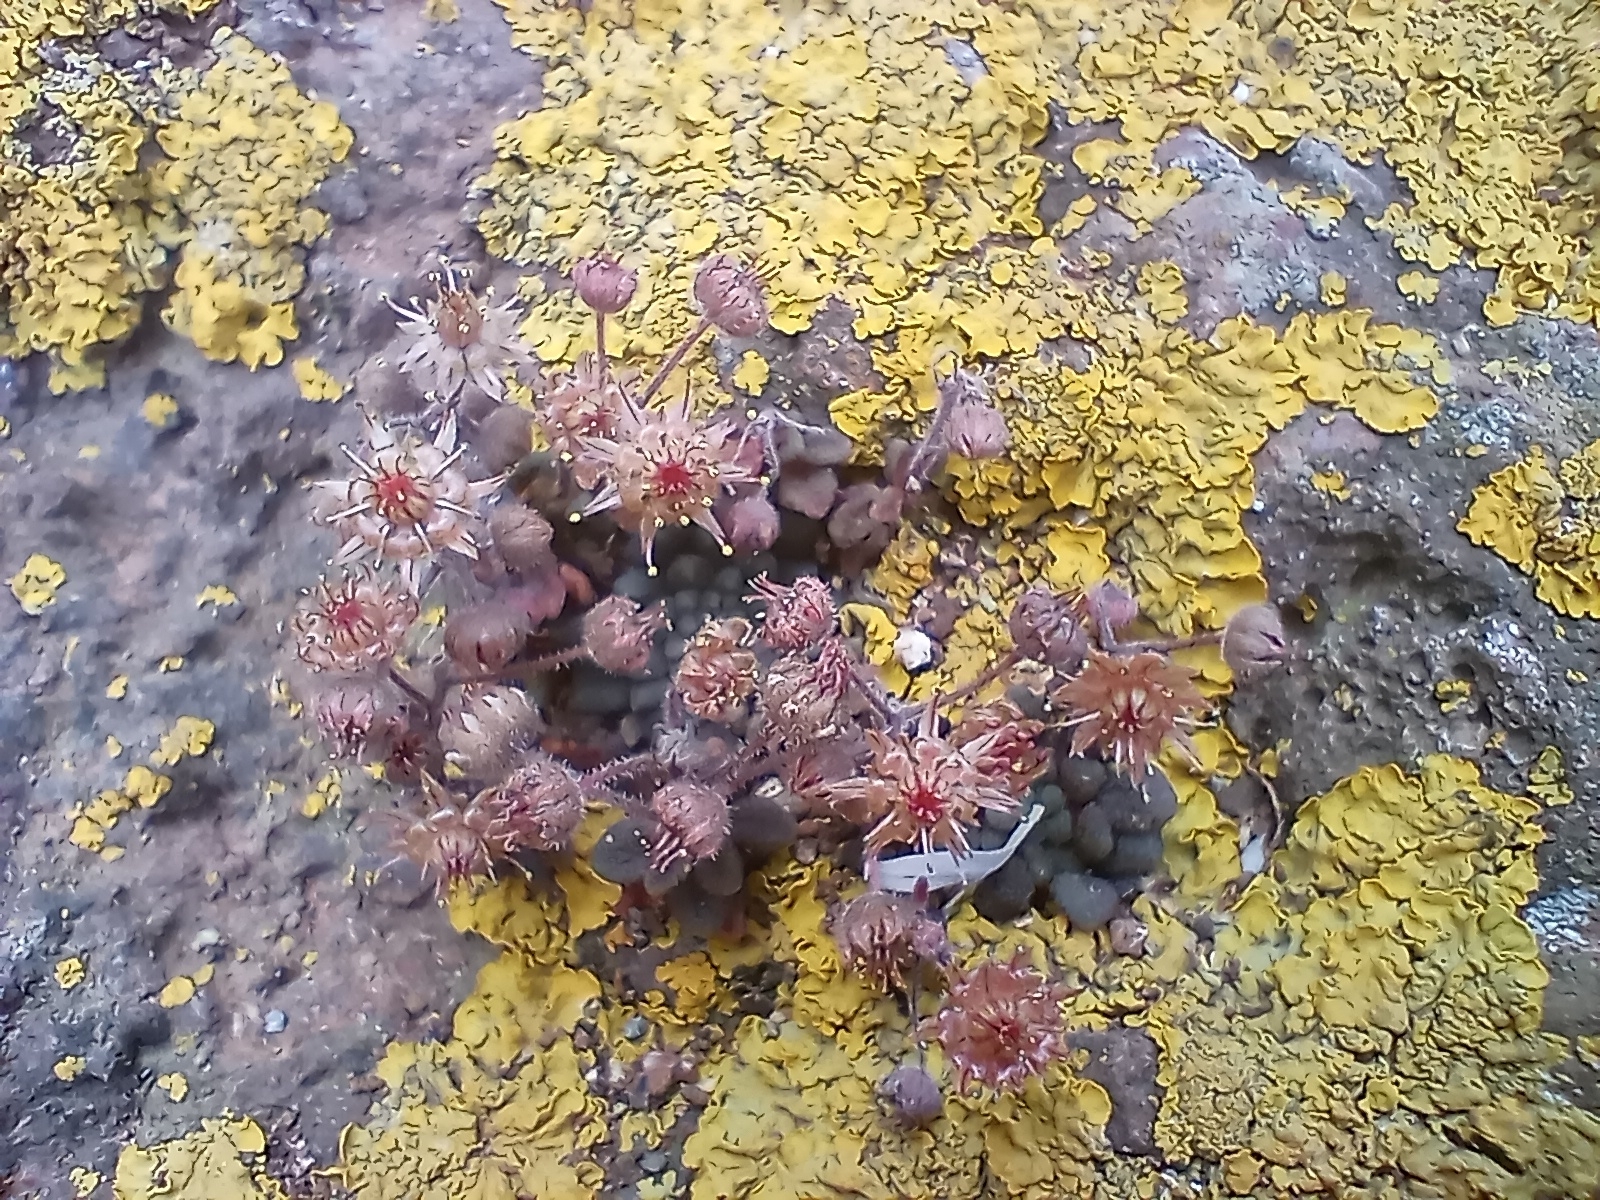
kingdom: Plantae
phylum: Tracheophyta
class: Magnoliopsida
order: Saxifragales
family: Crassulaceae
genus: Monanthes
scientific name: Monanthes brachycaulos
